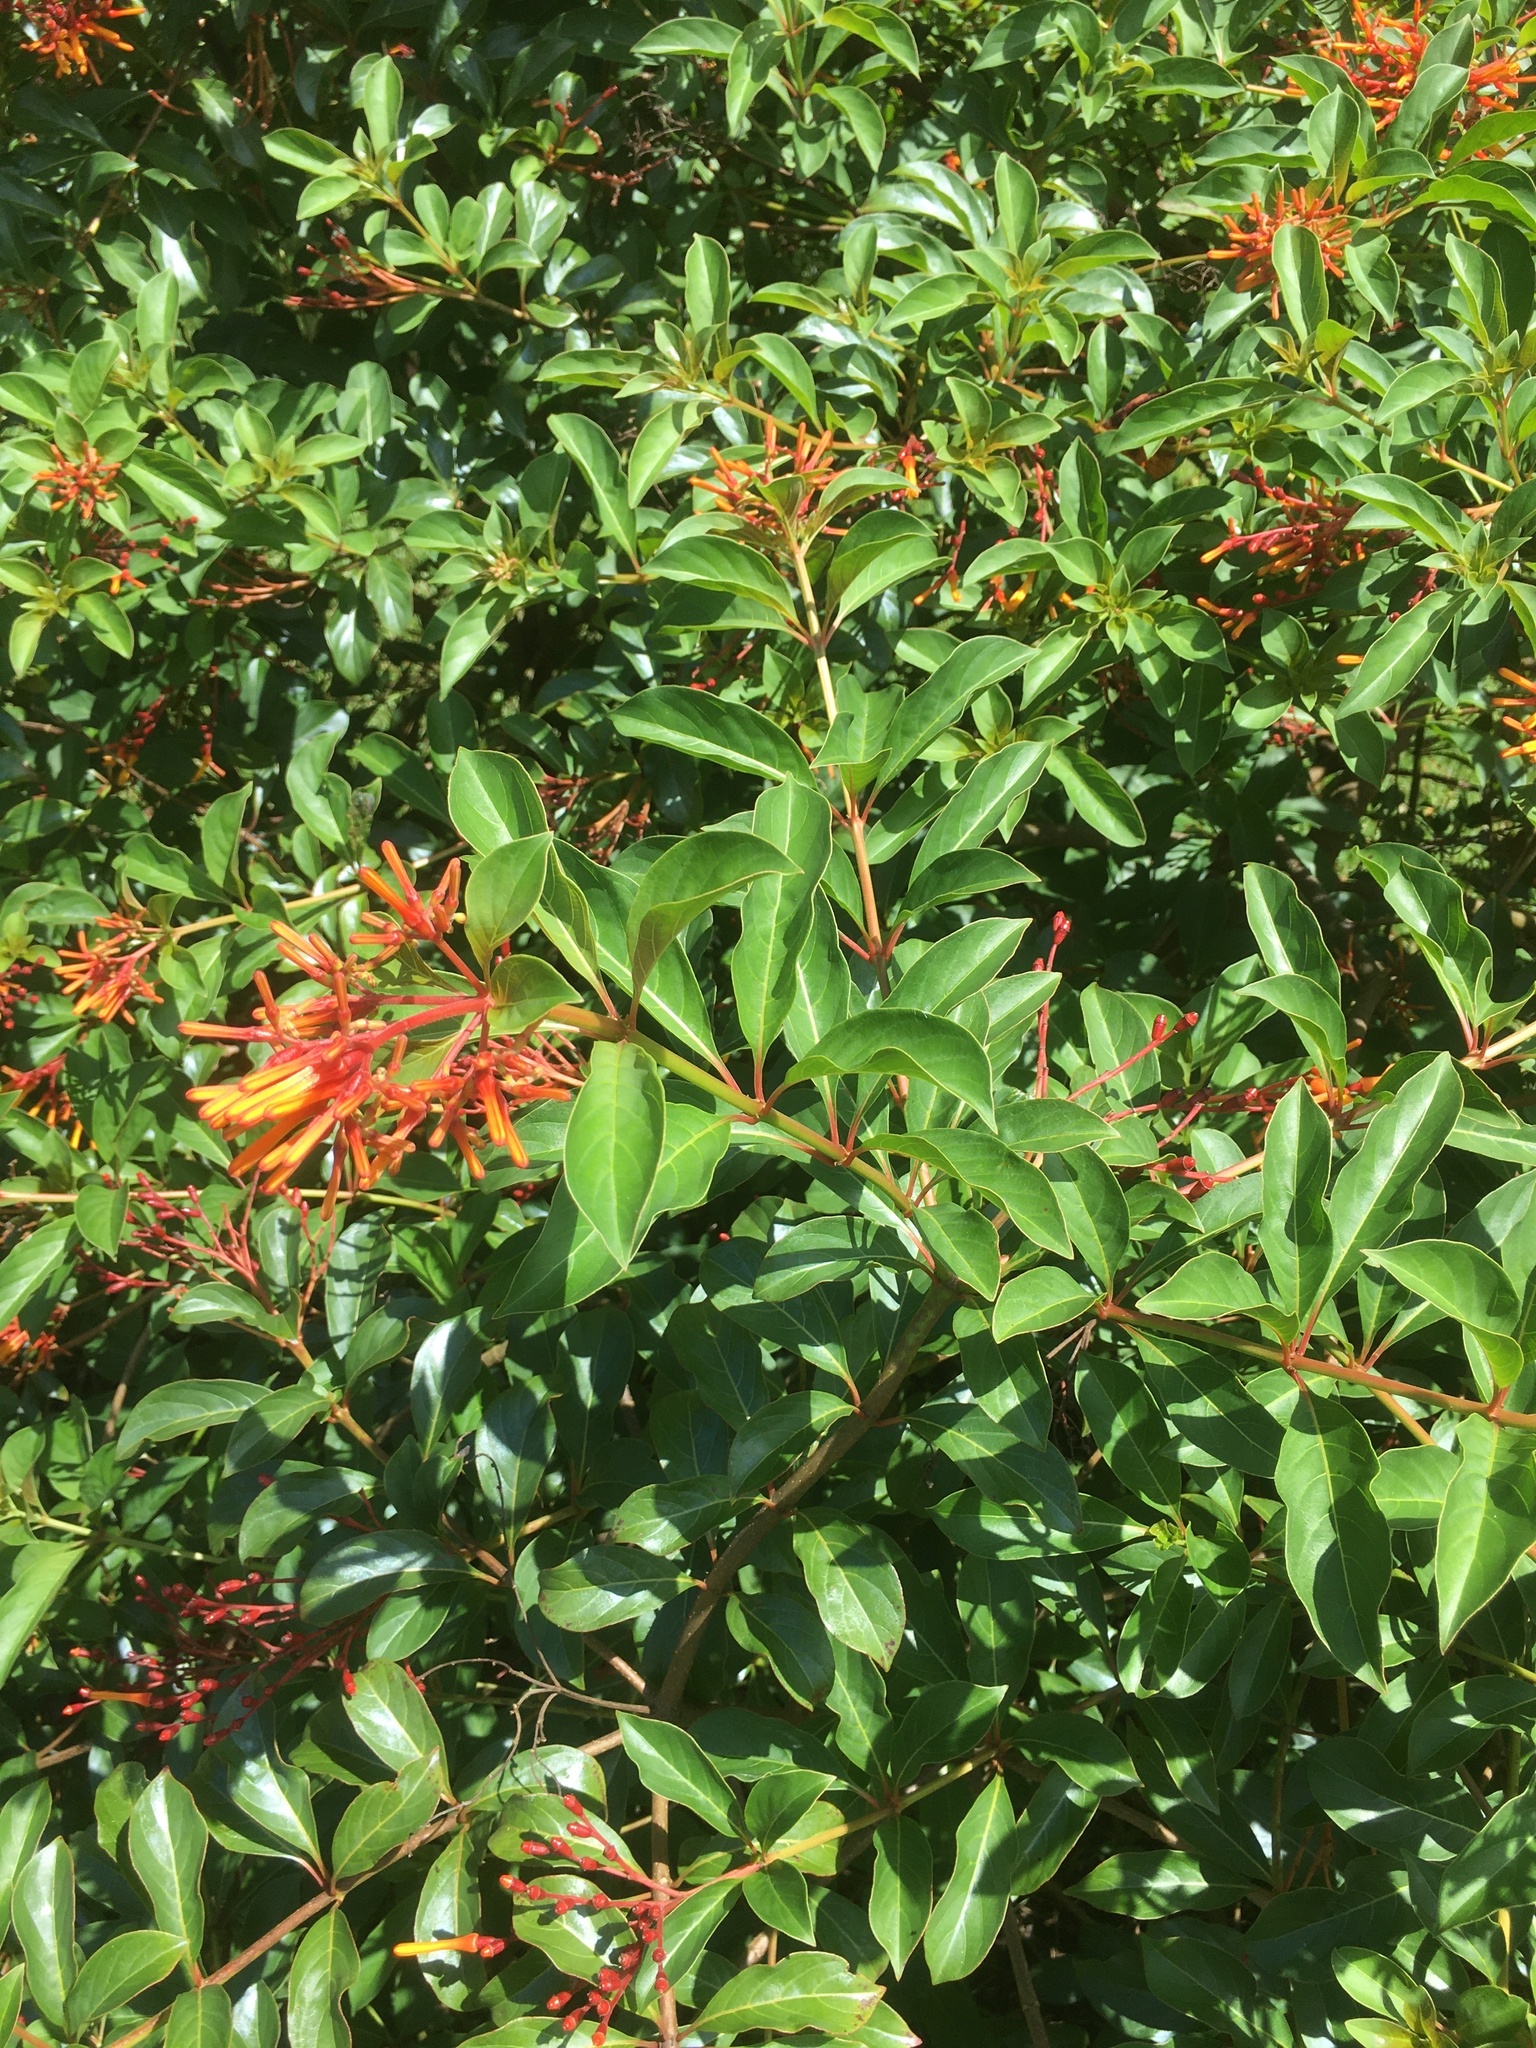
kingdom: Plantae
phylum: Tracheophyta
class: Magnoliopsida
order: Gentianales
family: Rubiaceae
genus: Hamelia
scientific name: Hamelia patens
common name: Redhead
